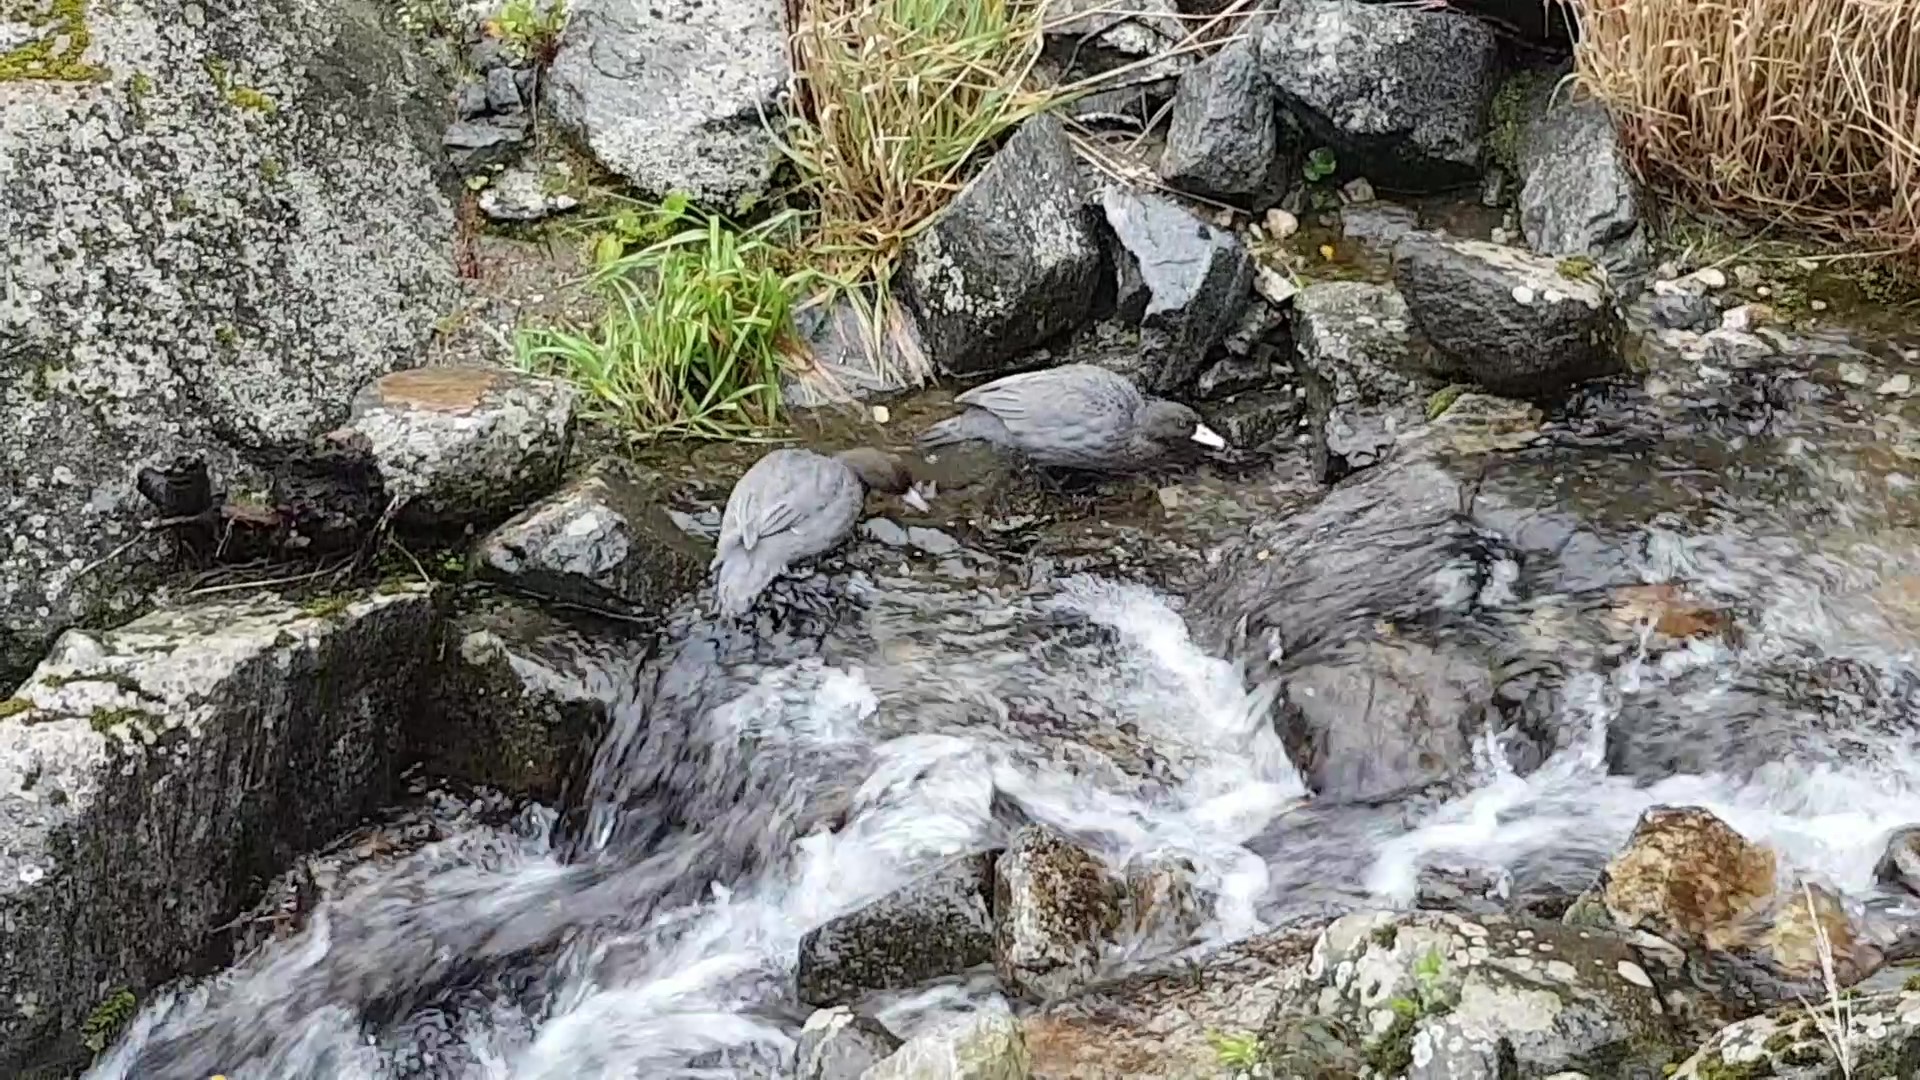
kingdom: Animalia
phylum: Chordata
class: Aves
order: Anseriformes
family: Anatidae
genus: Hymenolaimus
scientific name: Hymenolaimus malacorhynchos
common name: Blue duck
